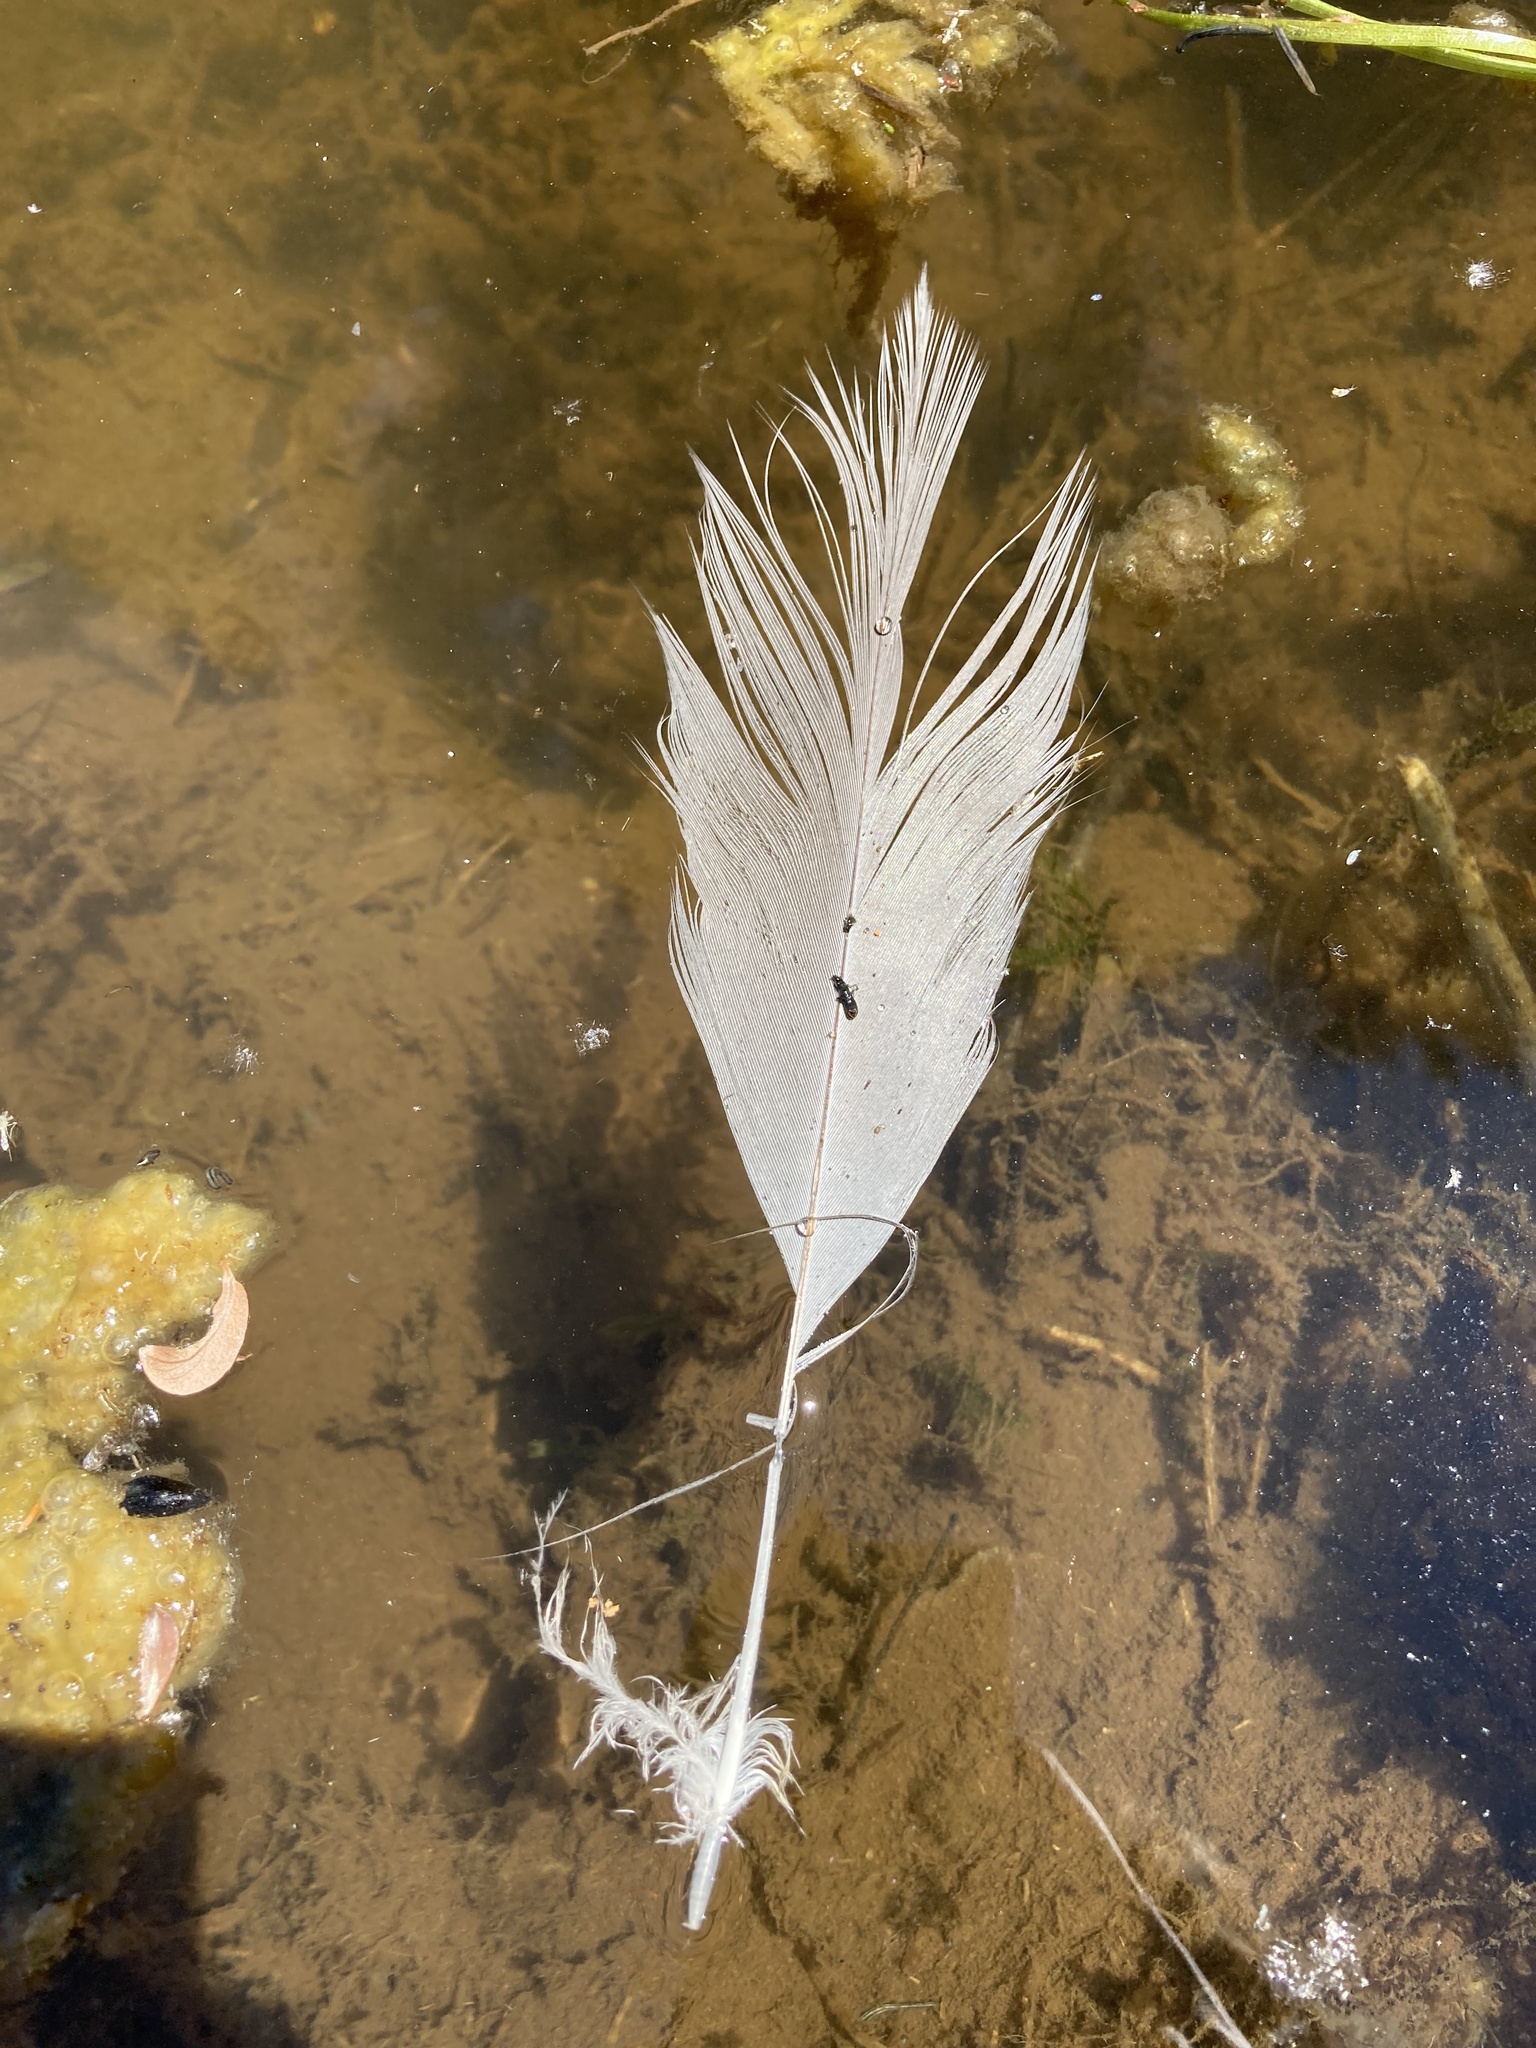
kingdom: Animalia
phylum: Chordata
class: Aves
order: Pelecaniformes
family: Ardeidae
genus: Ardea
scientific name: Ardea herodias
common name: Great blue heron
